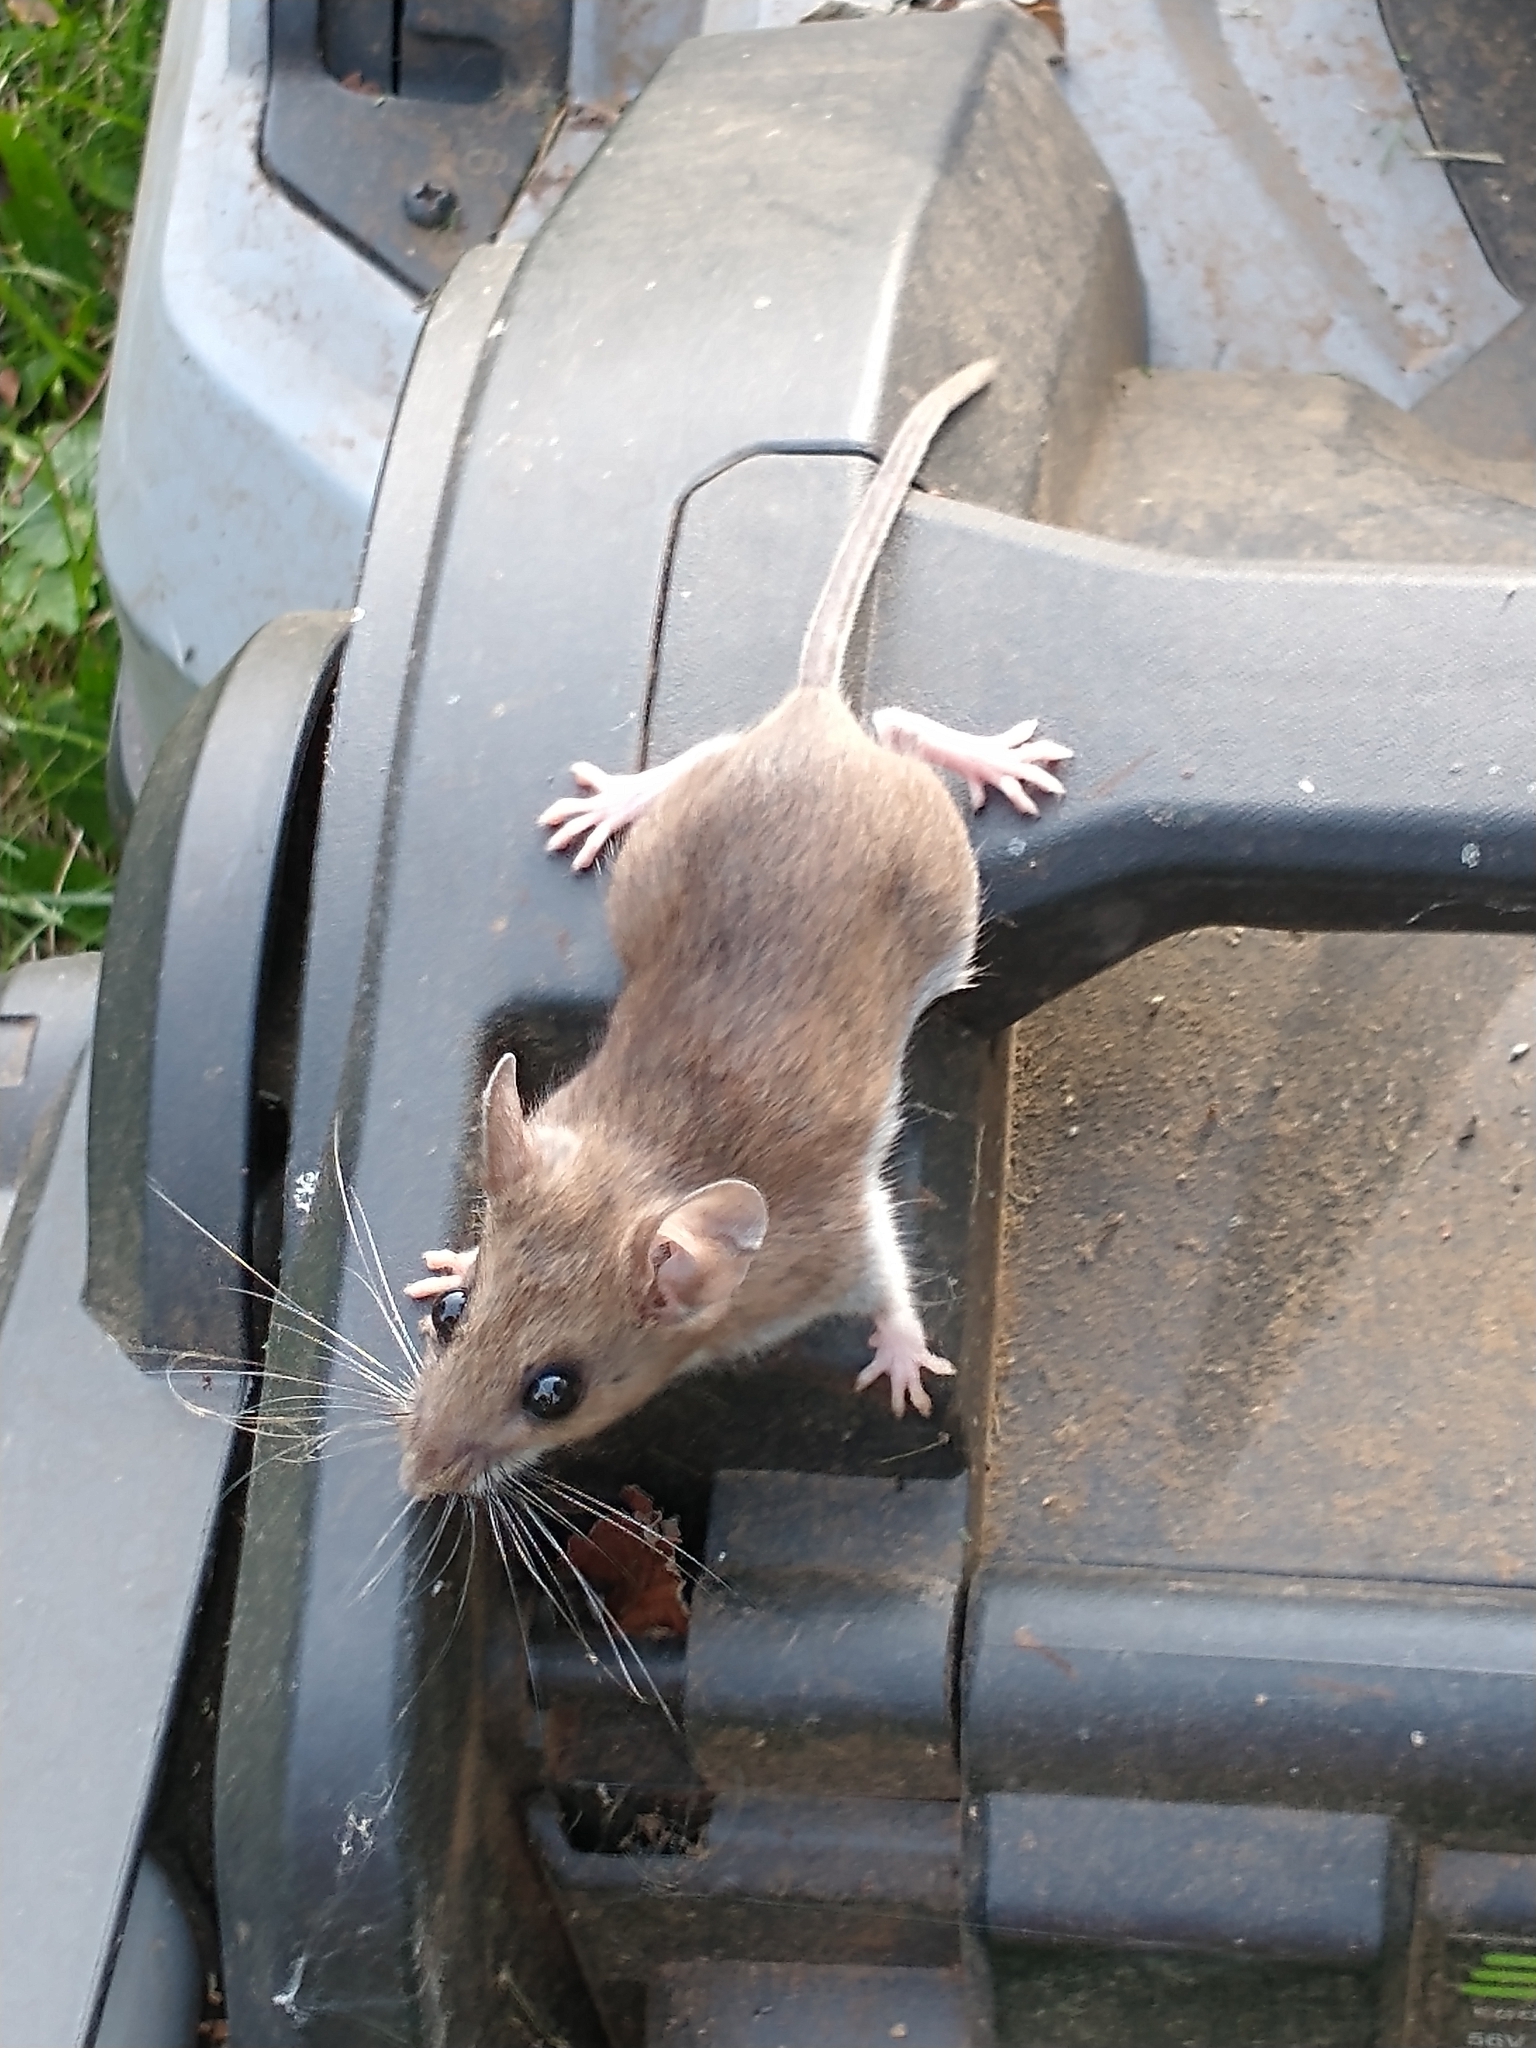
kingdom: Animalia
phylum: Chordata
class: Mammalia
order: Rodentia
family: Cricetidae
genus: Peromyscus
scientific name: Peromyscus leucopus
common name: White-footed deermouse
